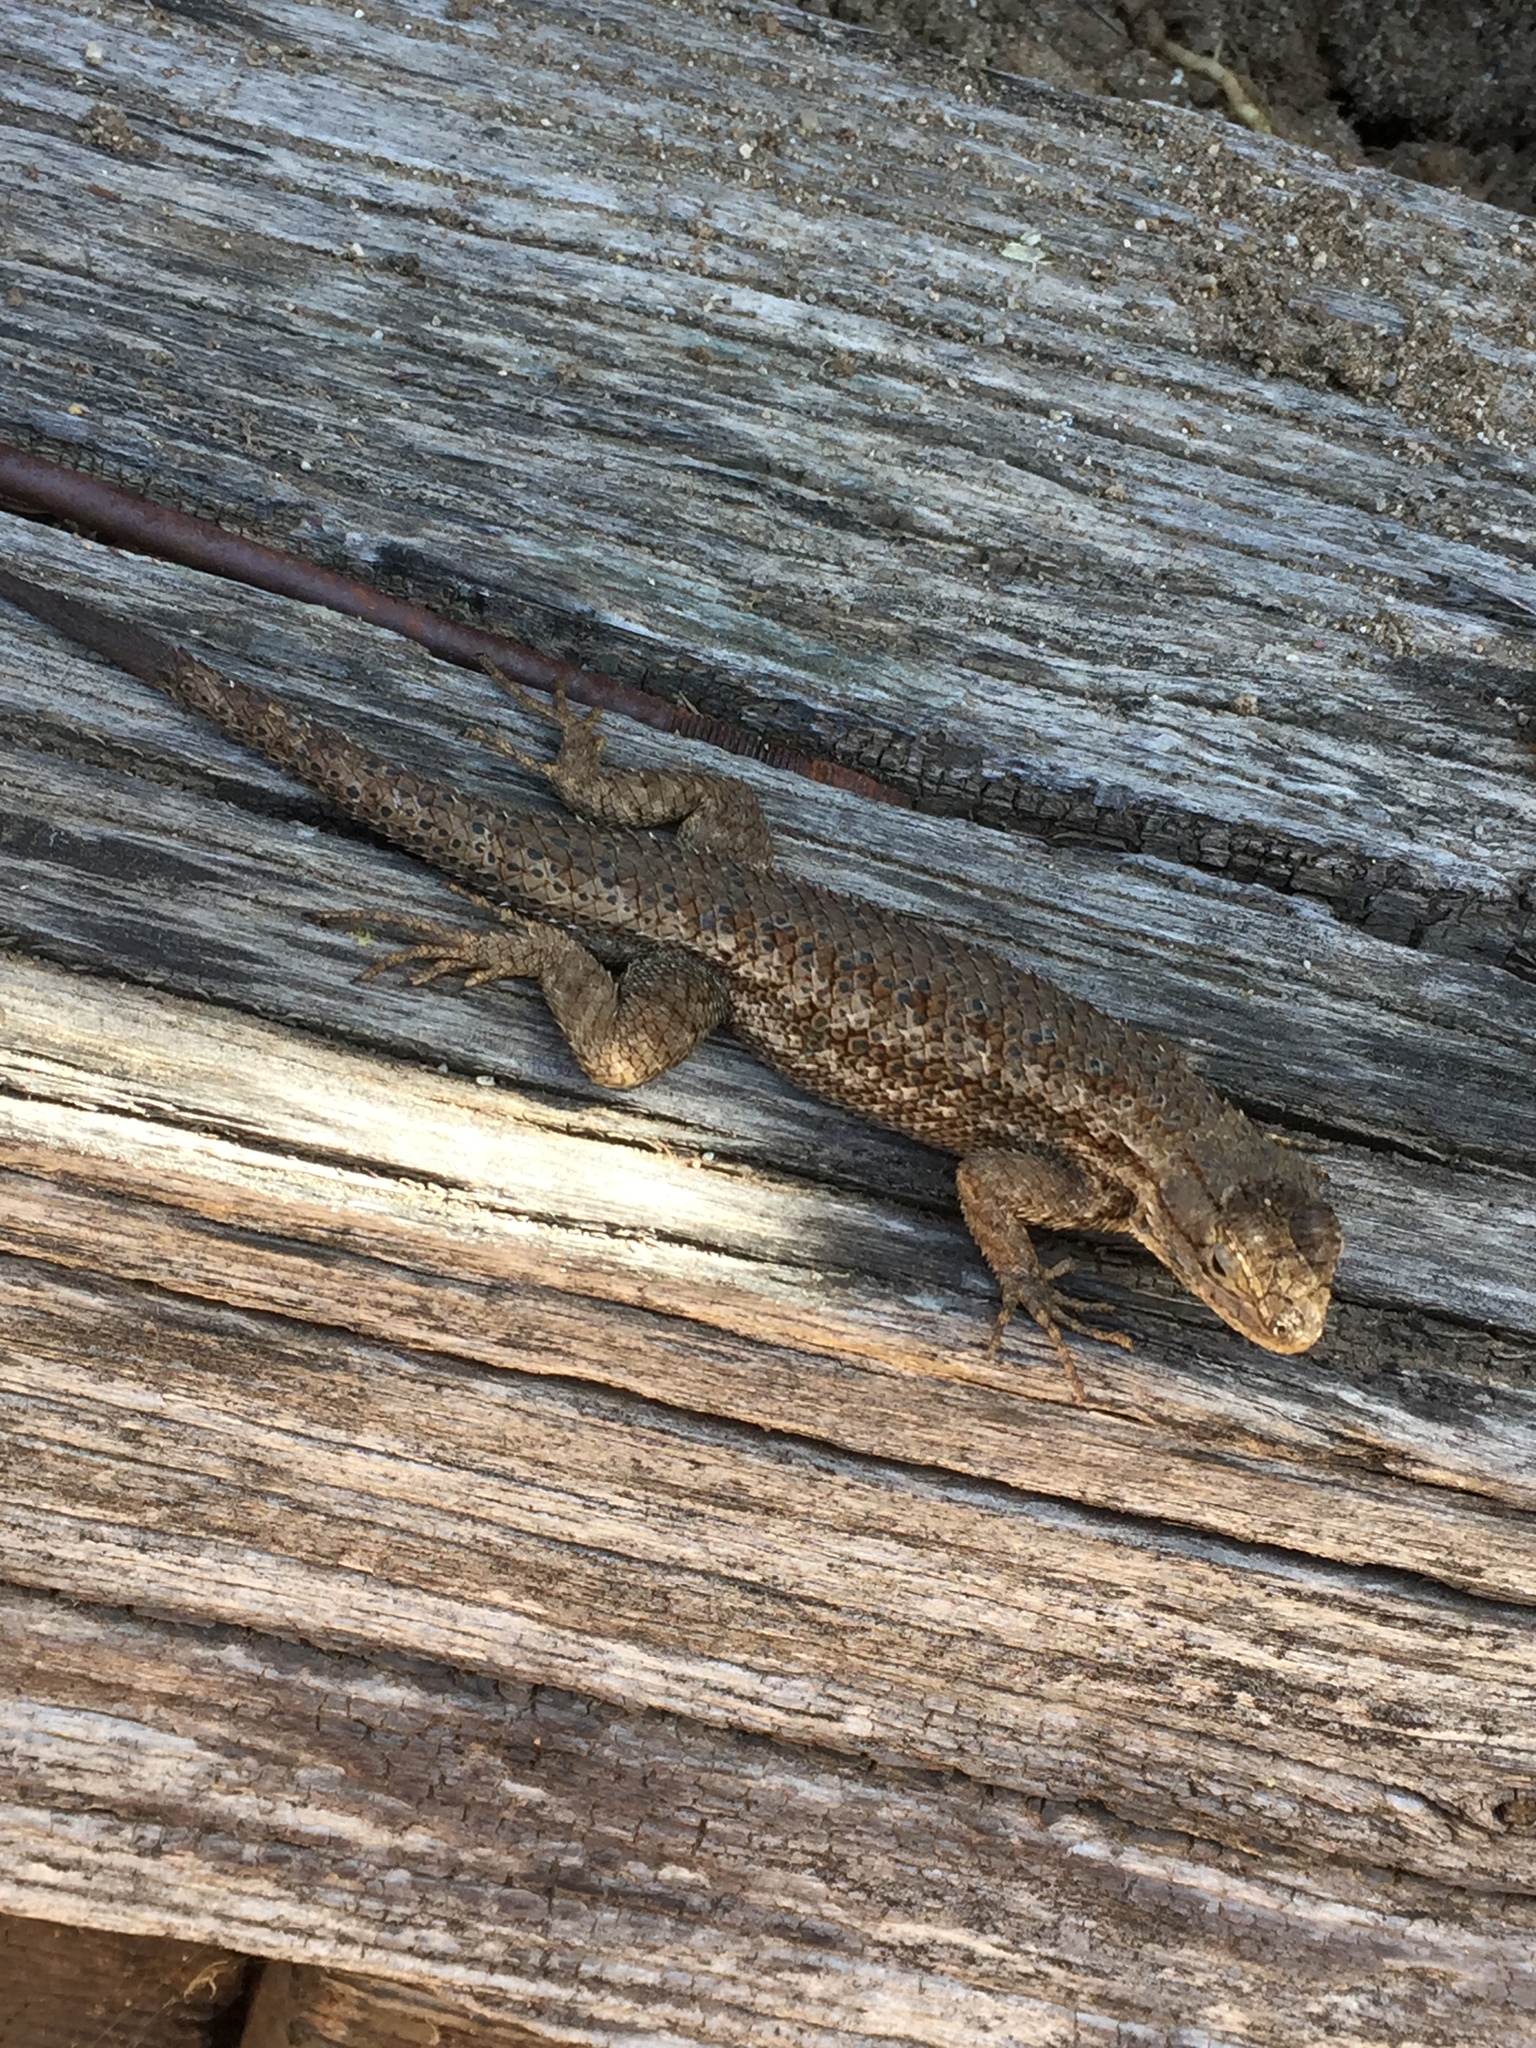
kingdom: Animalia
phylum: Chordata
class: Squamata
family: Phrynosomatidae
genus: Sceloporus
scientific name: Sceloporus occidentalis
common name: Western fence lizard
